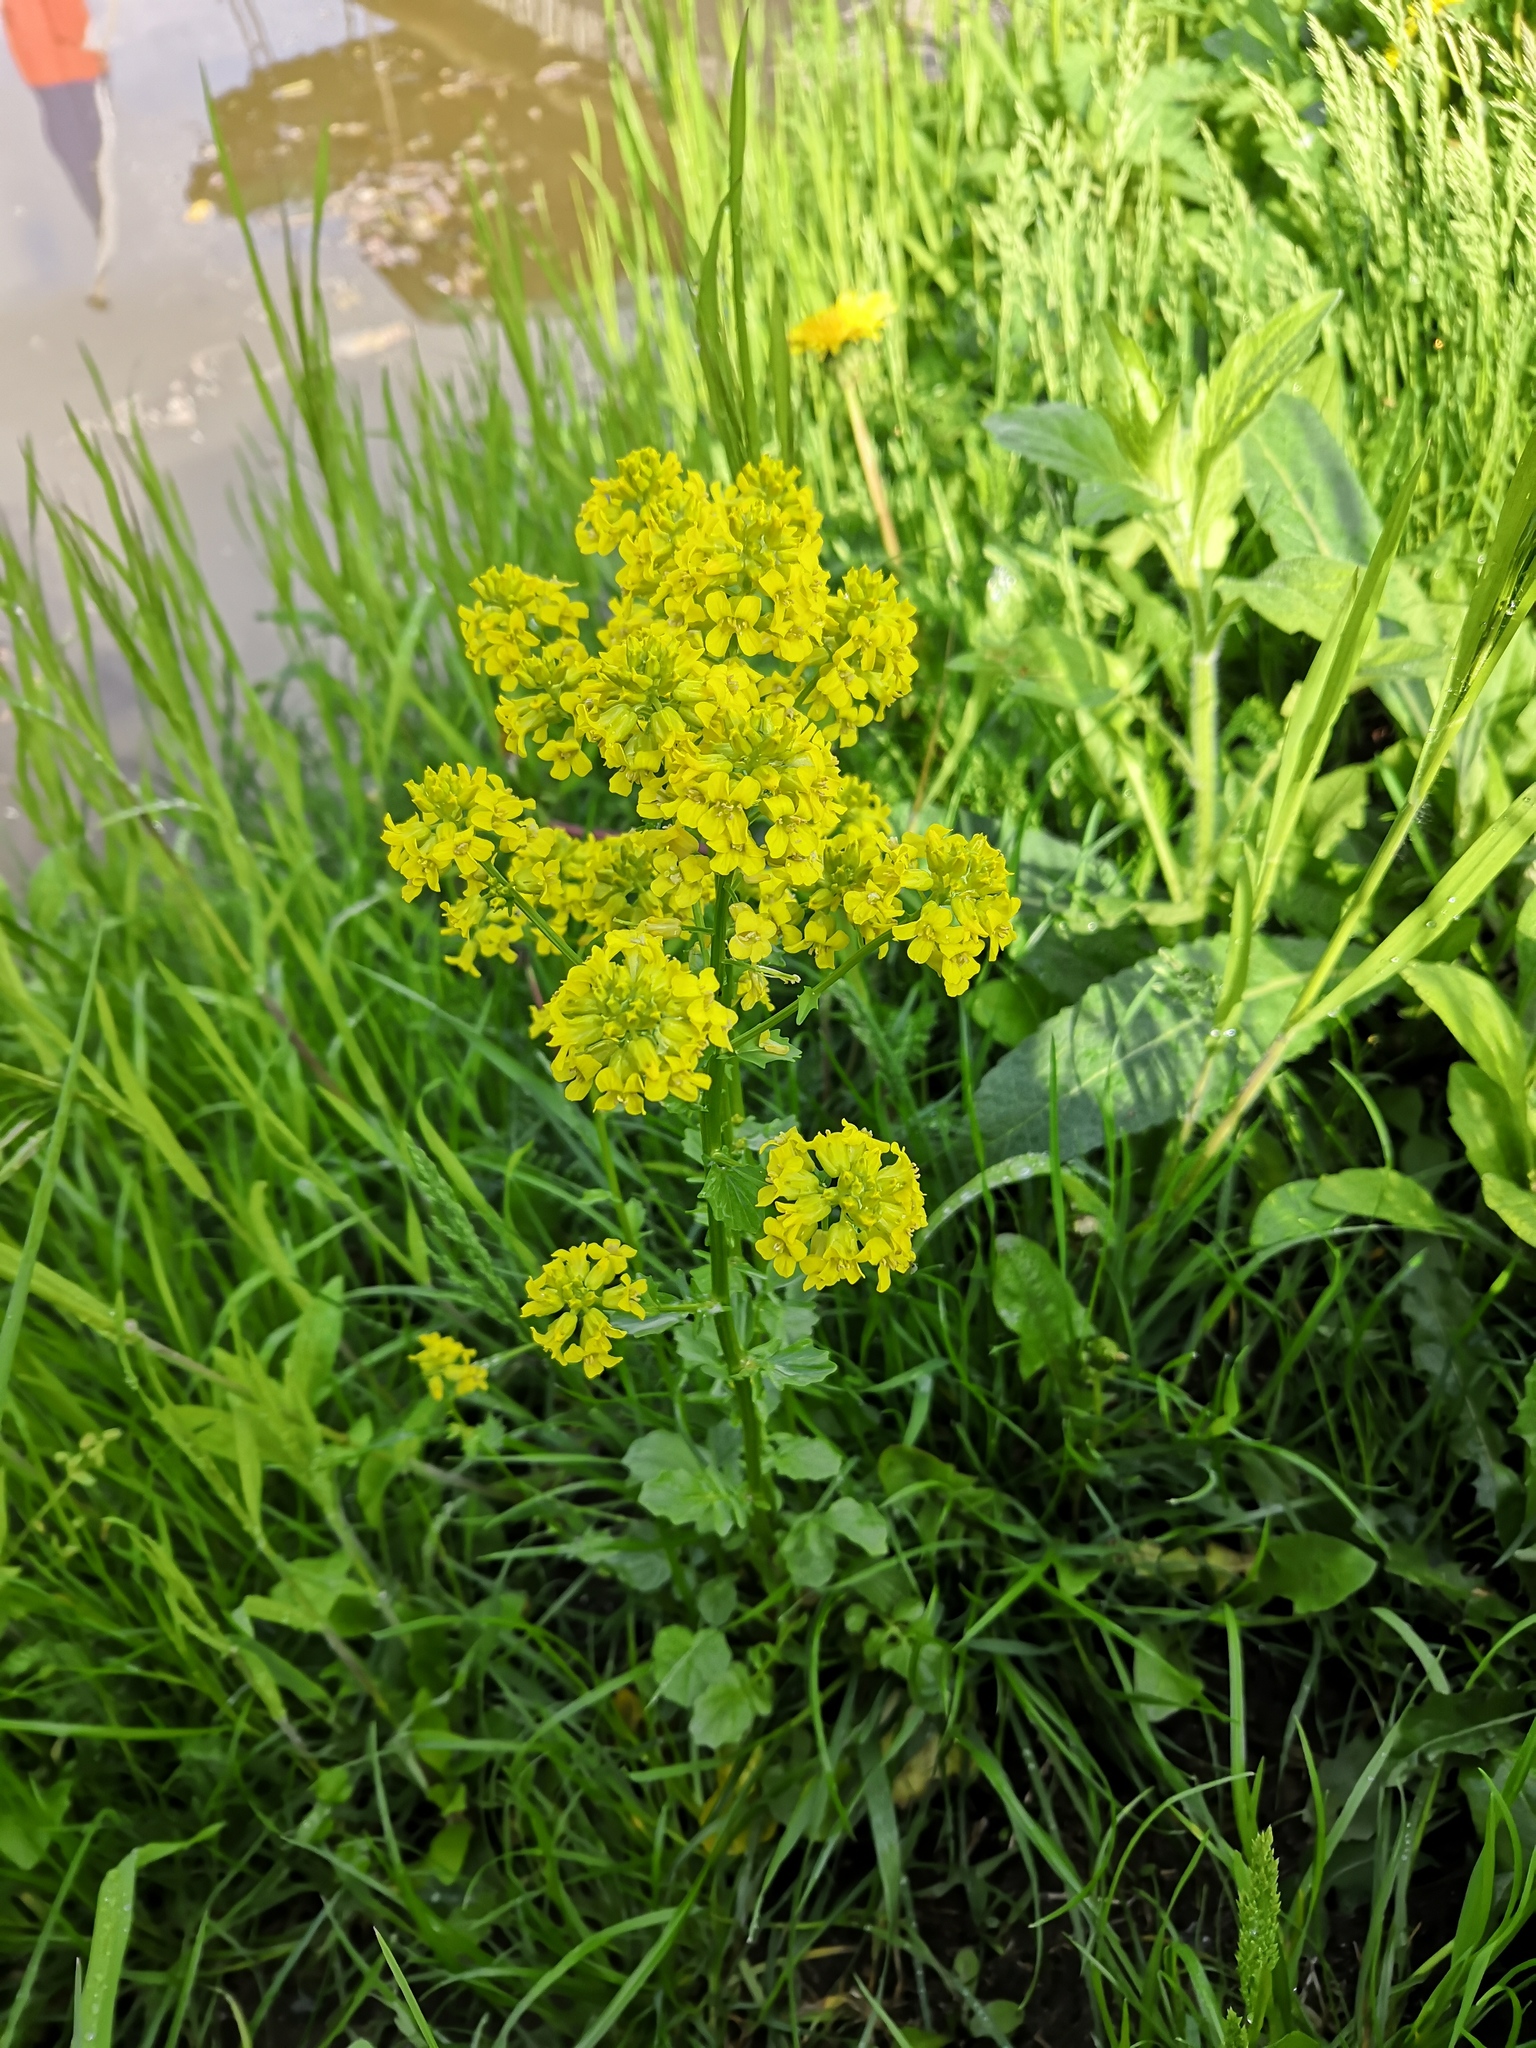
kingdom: Plantae
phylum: Tracheophyta
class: Magnoliopsida
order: Brassicales
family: Brassicaceae
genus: Barbarea
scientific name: Barbarea vulgaris
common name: Cressy-greens
